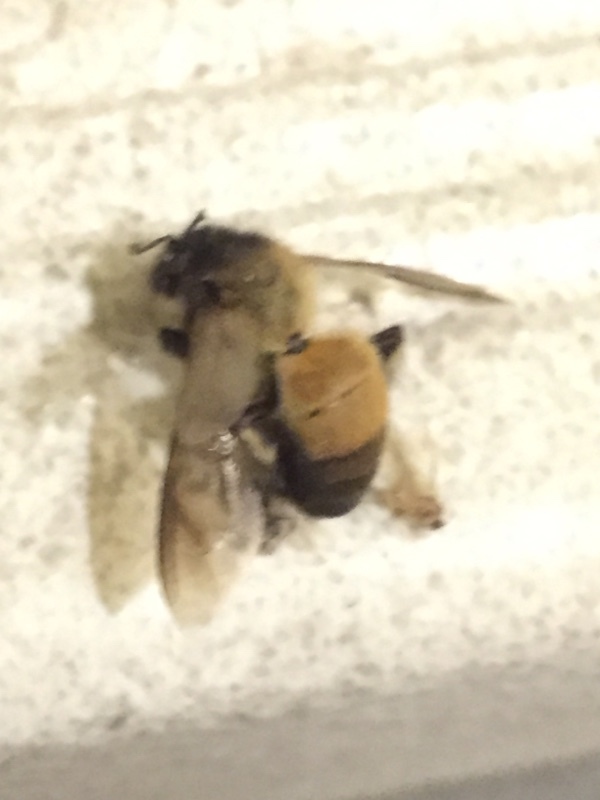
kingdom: Animalia
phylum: Arthropoda
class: Insecta
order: Hymenoptera
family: Apidae
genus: Apis
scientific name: Apis dorsata
